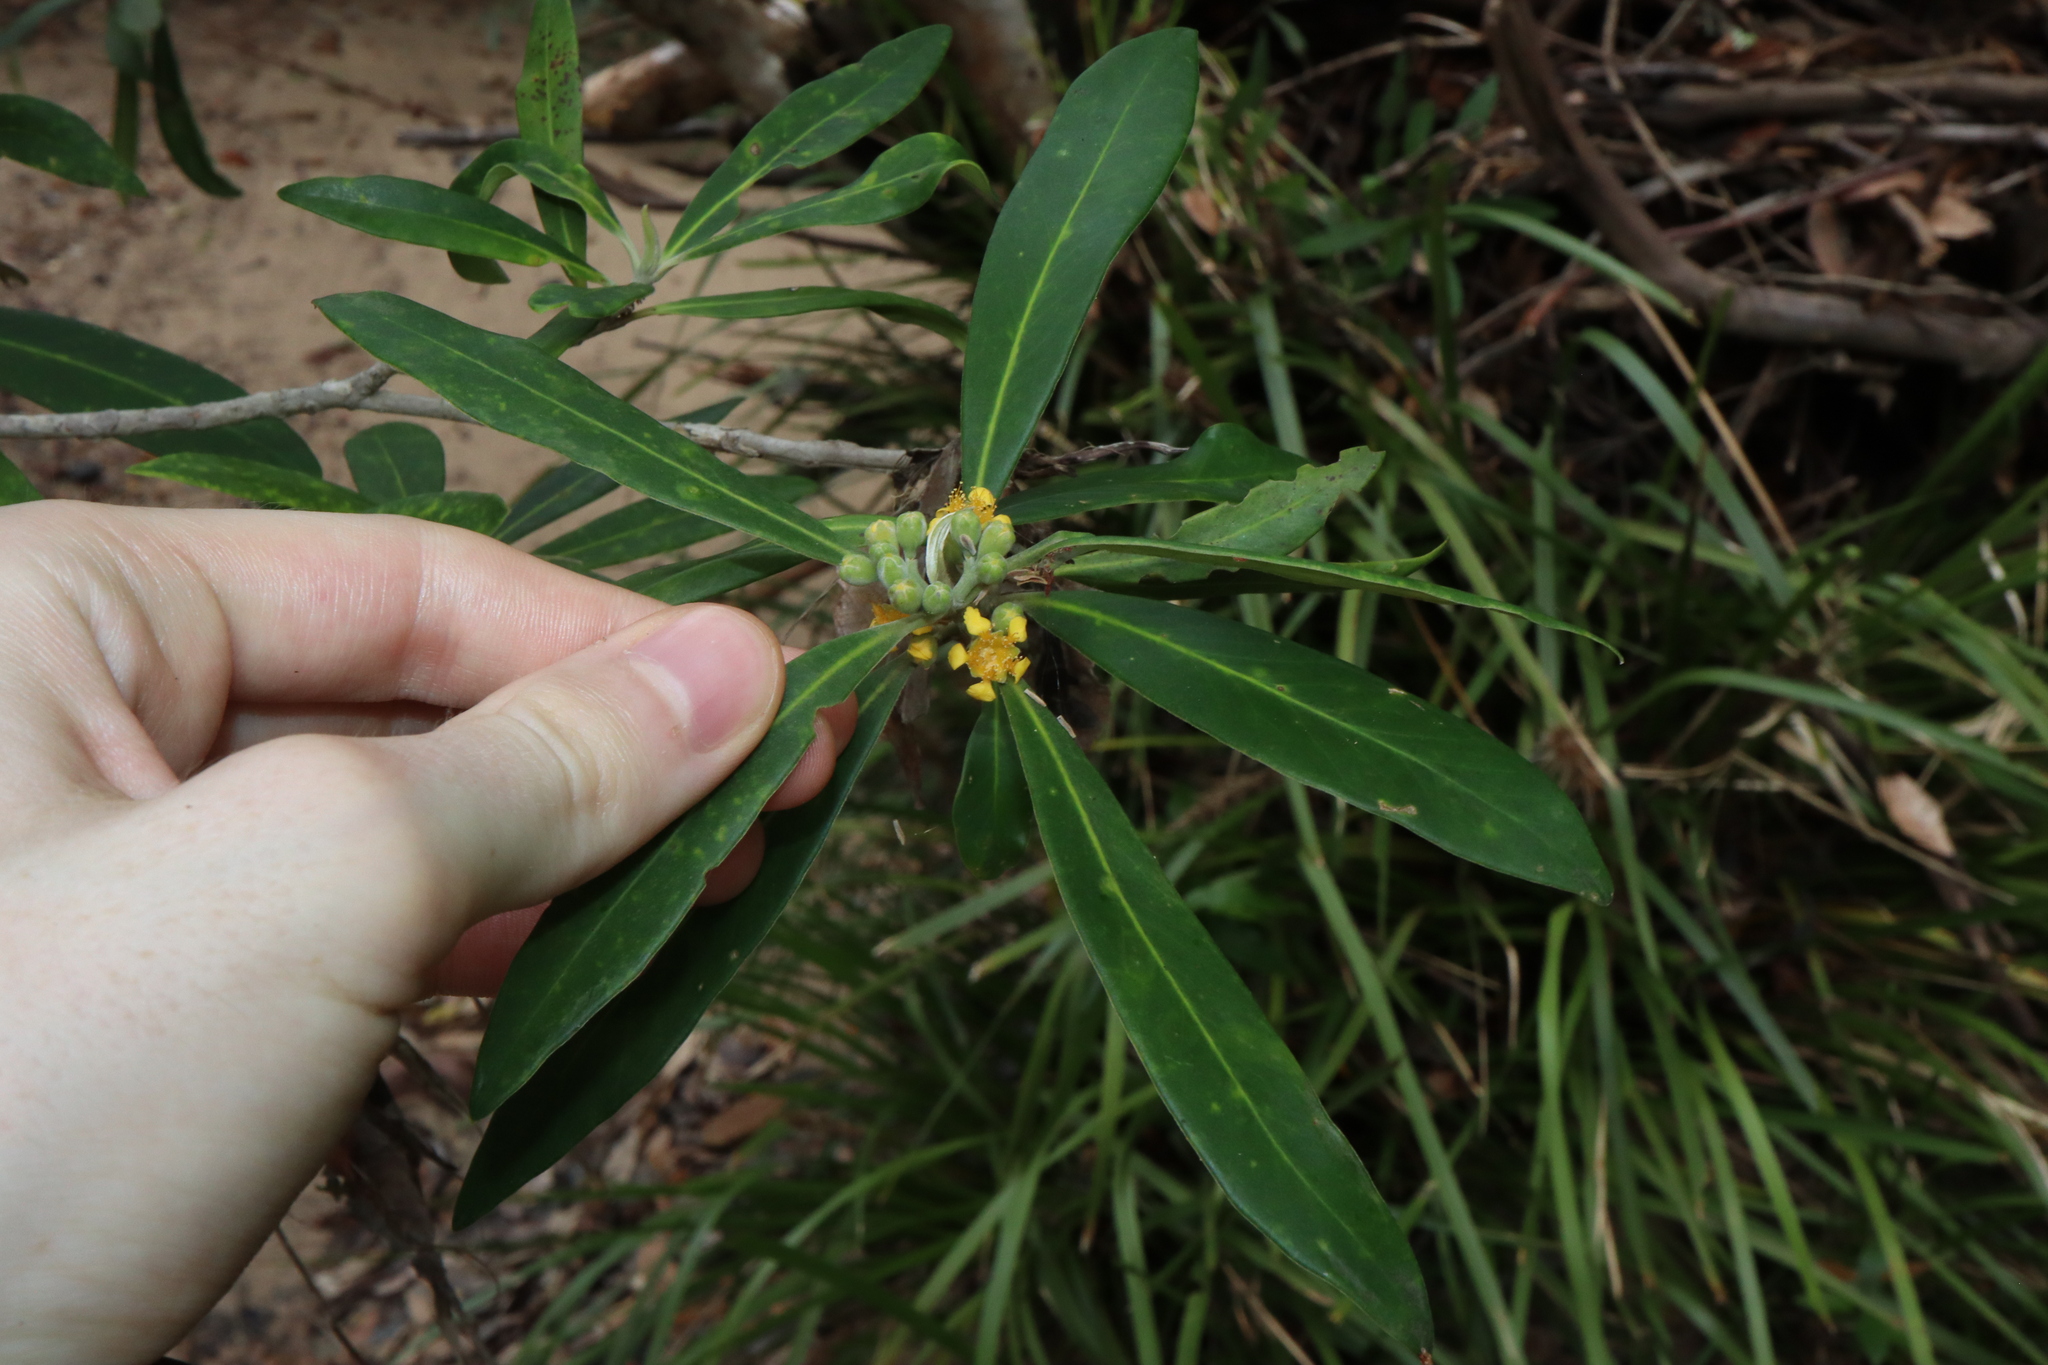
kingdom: Plantae
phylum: Tracheophyta
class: Magnoliopsida
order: Myrtales
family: Myrtaceae
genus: Tristaniopsis
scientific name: Tristaniopsis laurina
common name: Water-gum
